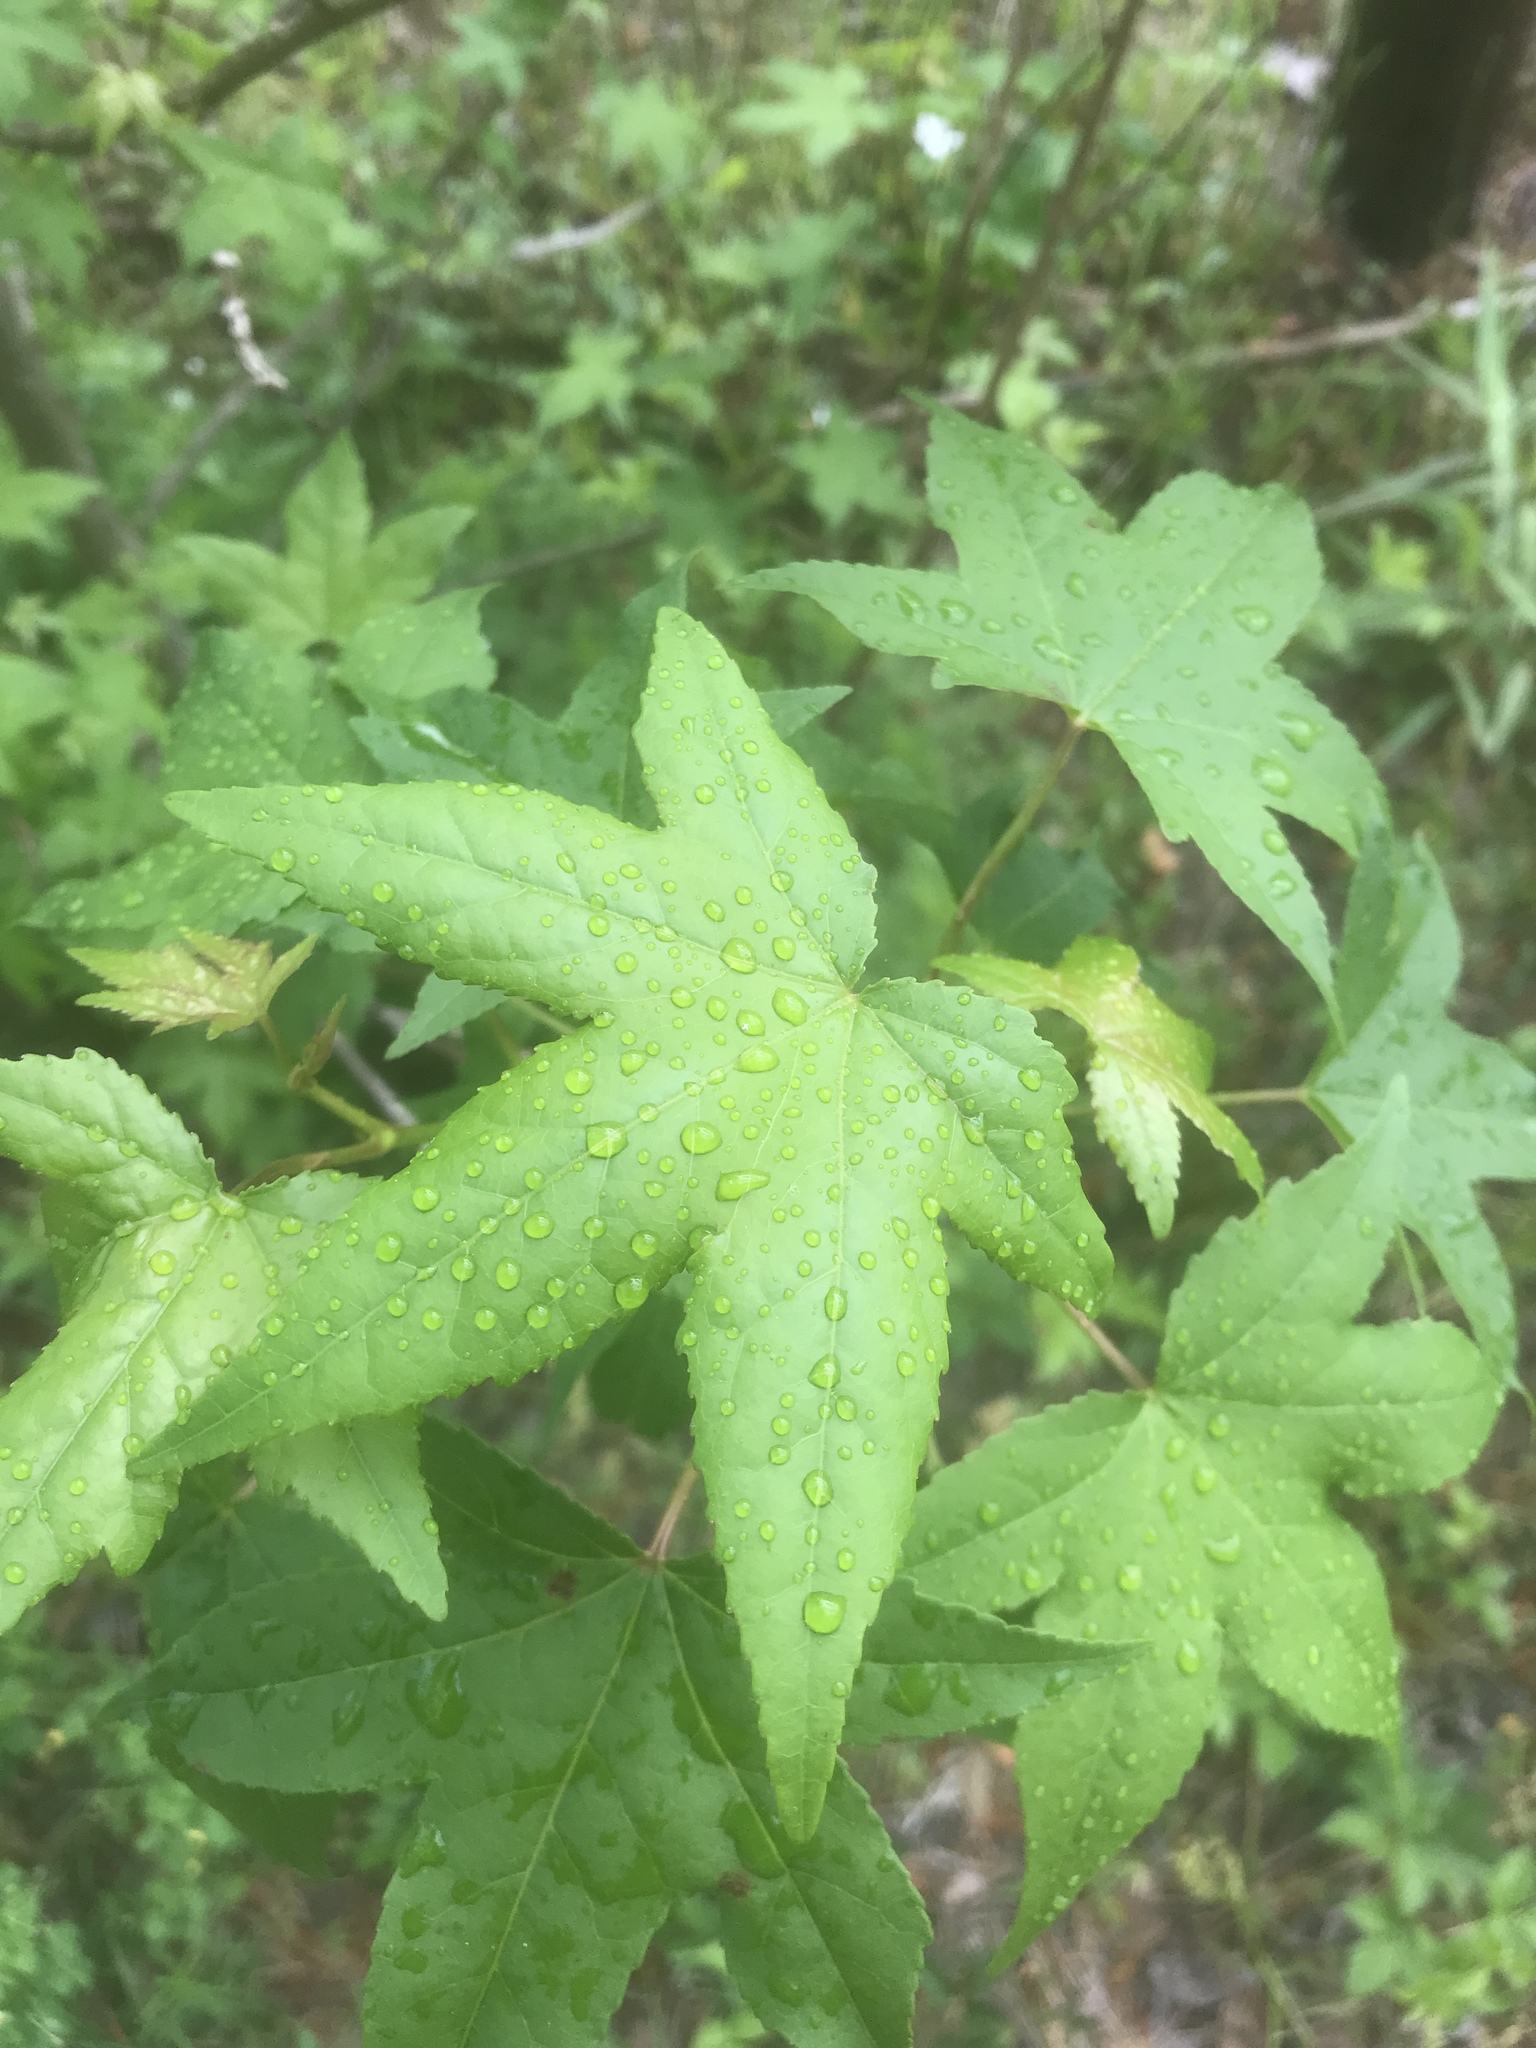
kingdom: Plantae
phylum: Tracheophyta
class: Magnoliopsida
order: Saxifragales
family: Altingiaceae
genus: Liquidambar
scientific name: Liquidambar styraciflua
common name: Sweet gum
